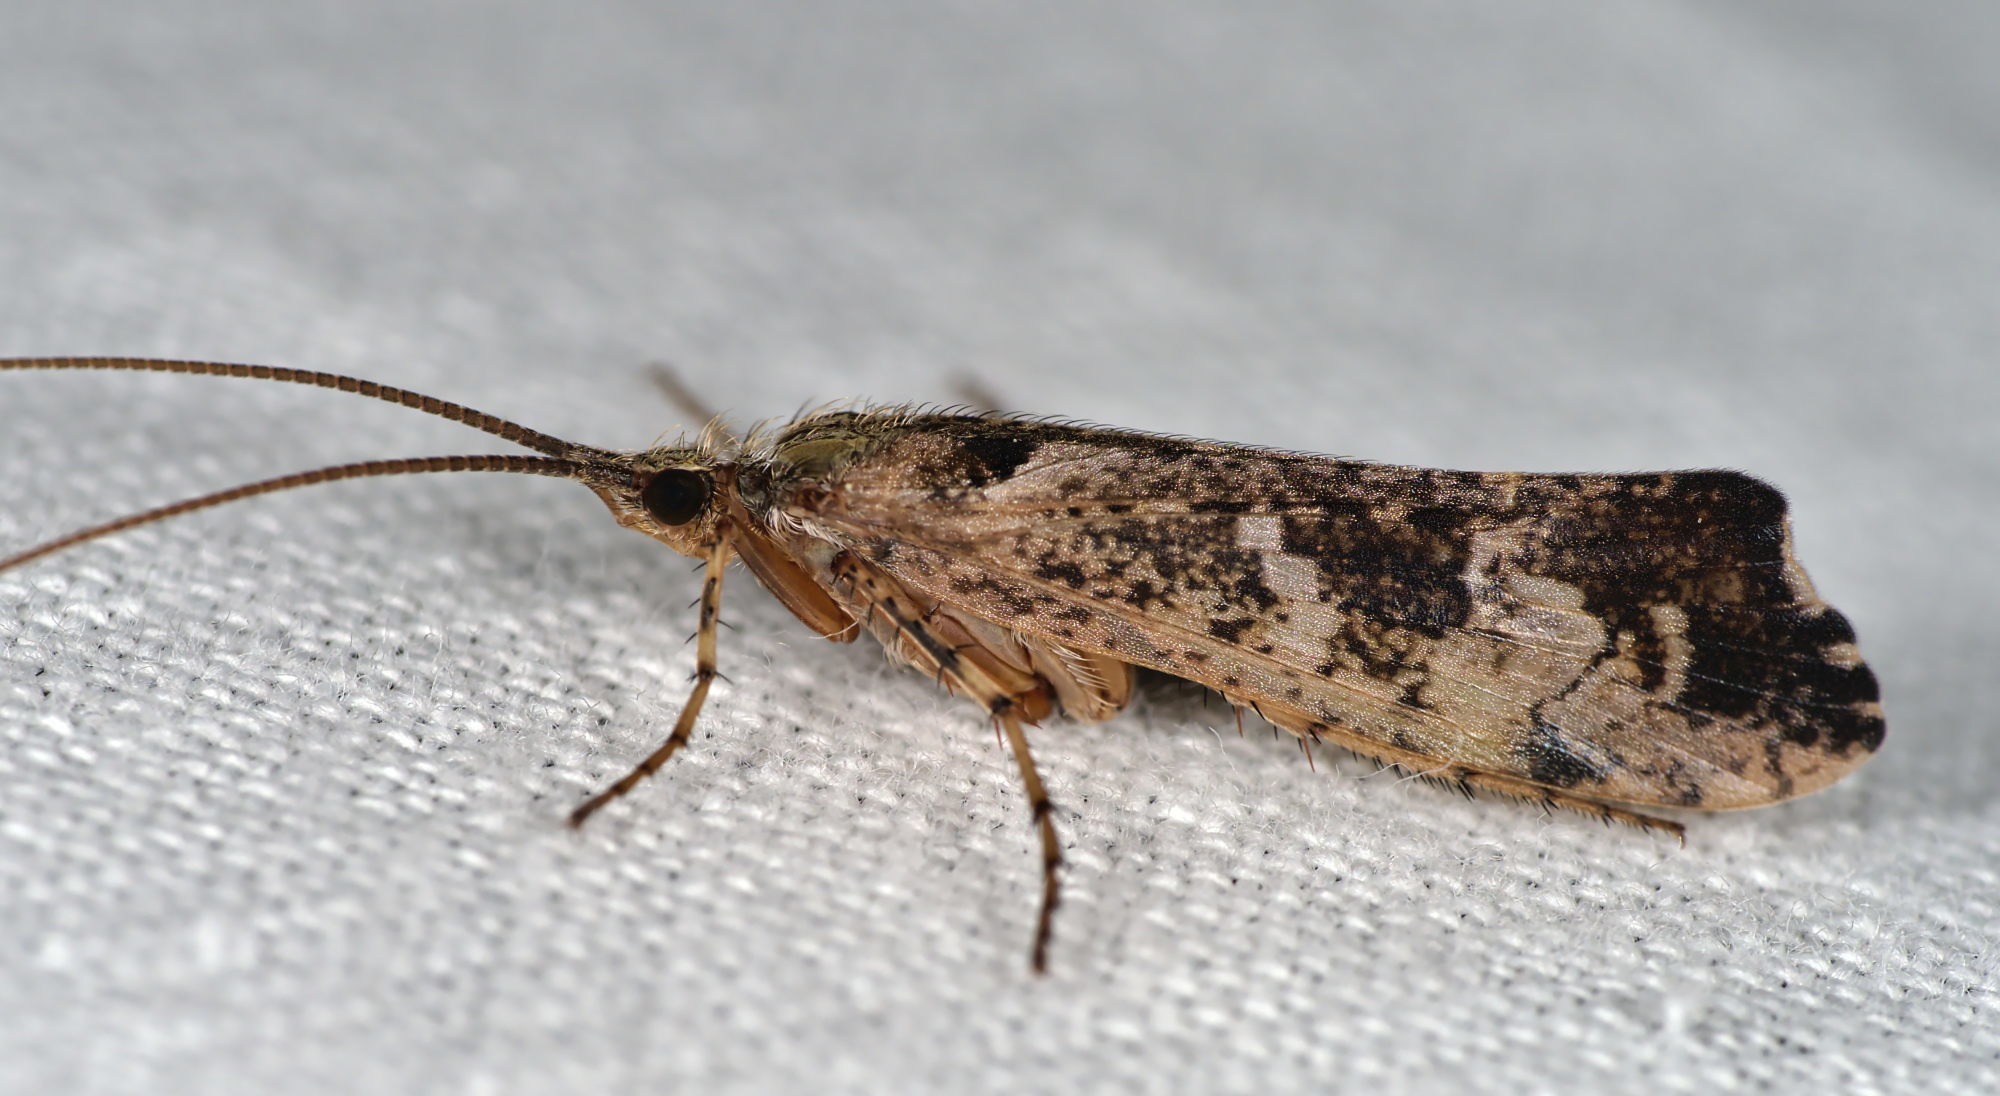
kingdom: Animalia
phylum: Arthropoda
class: Insecta
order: Trichoptera
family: Limnephilidae
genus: Glyphotaelius
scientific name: Glyphotaelius pellucidus
